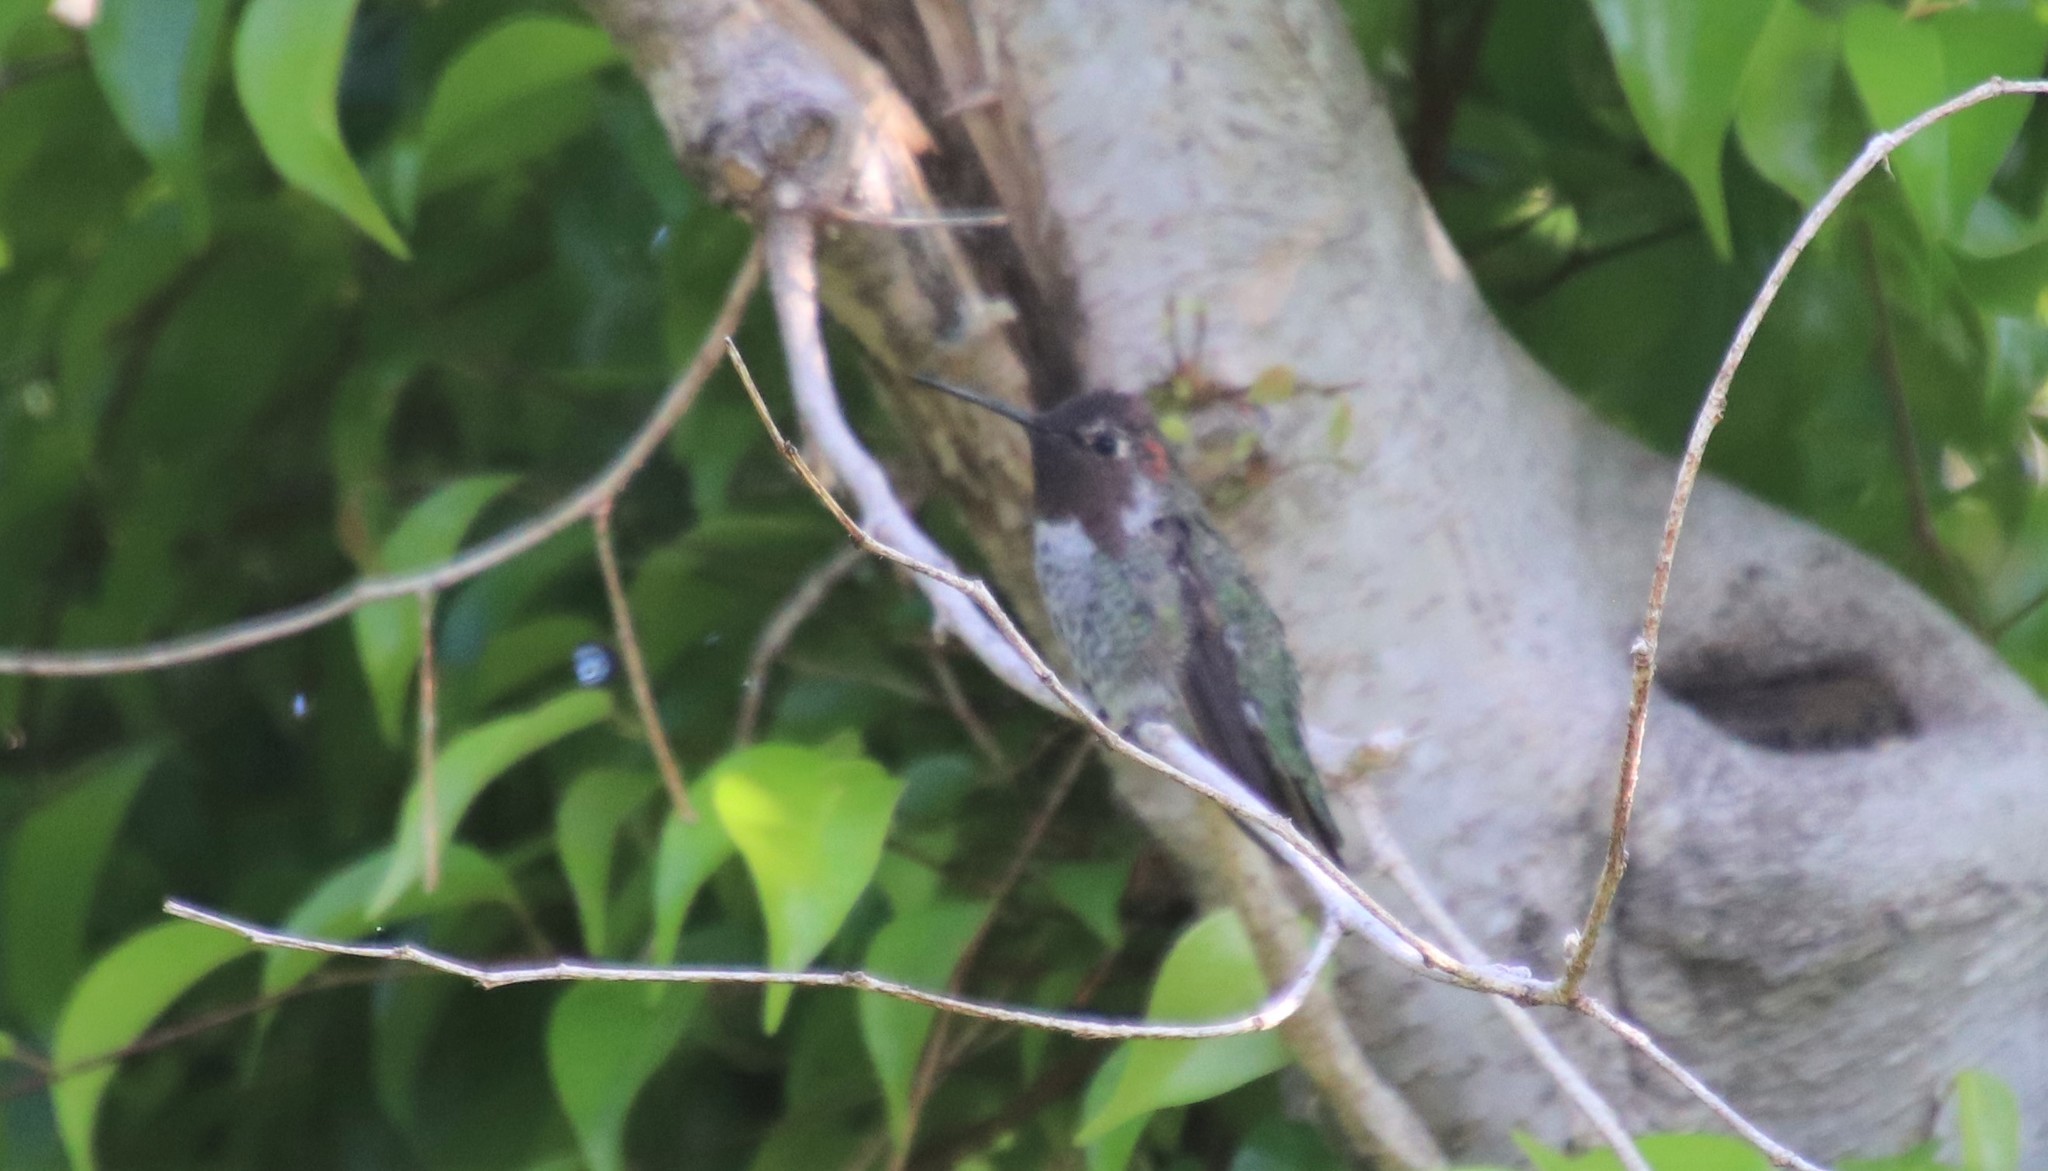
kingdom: Animalia
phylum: Chordata
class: Aves
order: Apodiformes
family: Trochilidae
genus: Calypte
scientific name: Calypte anna
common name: Anna's hummingbird
